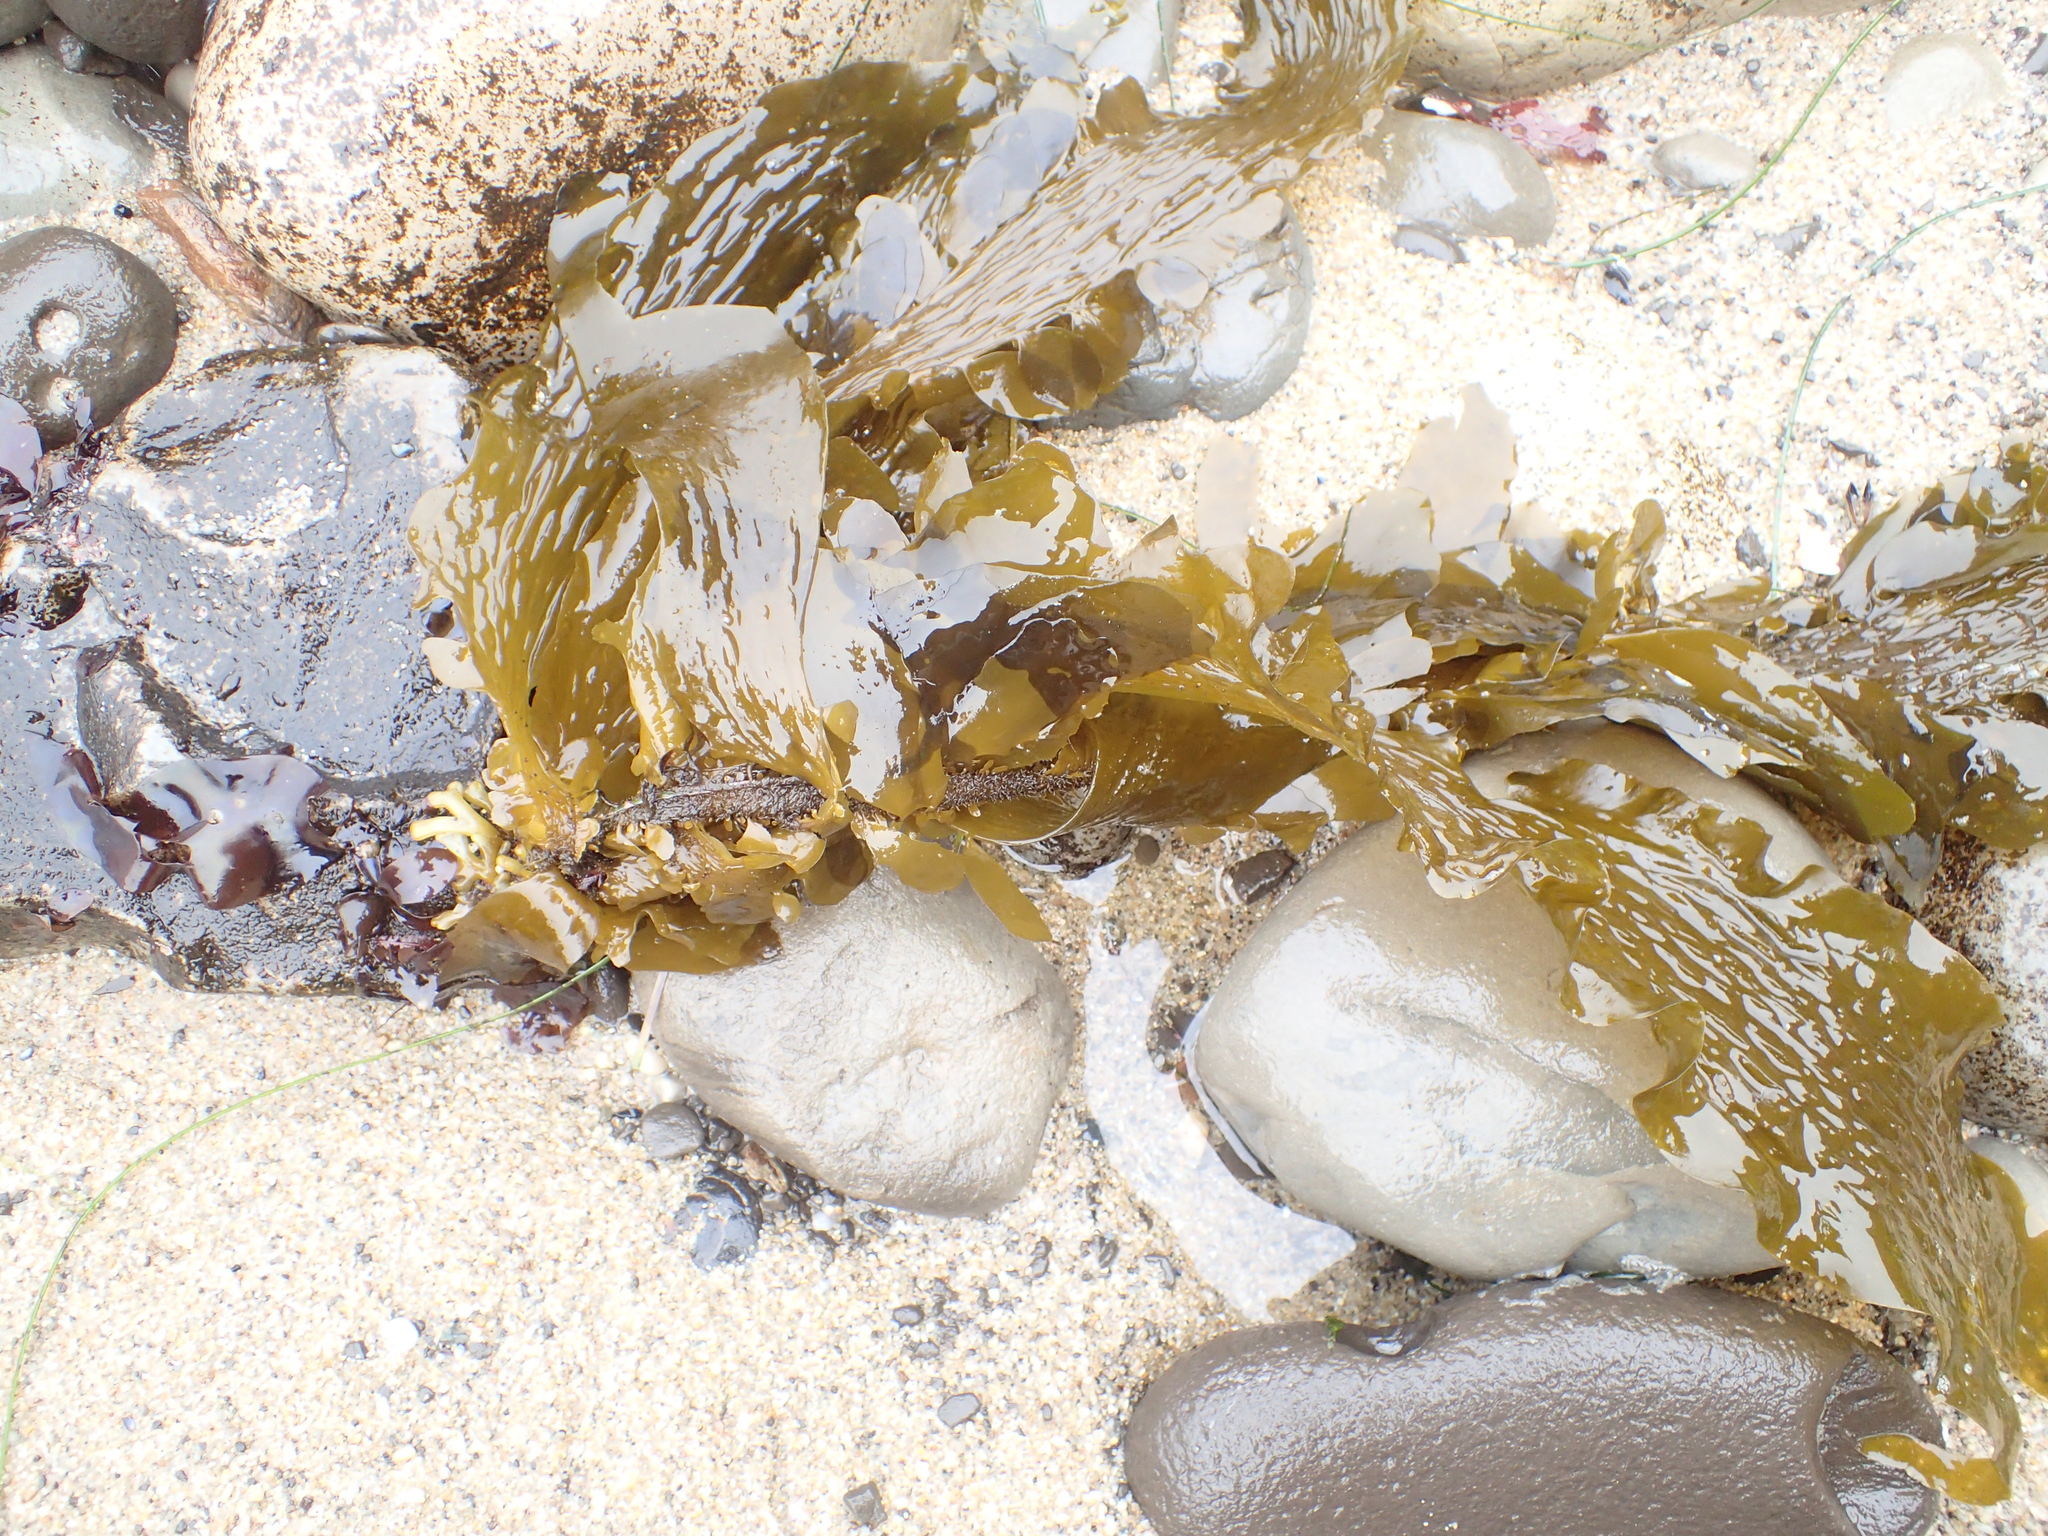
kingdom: Chromista
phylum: Ochrophyta
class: Phaeophyceae
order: Laminariales
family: Lessoniaceae
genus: Egregia
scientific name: Egregia menziesii
